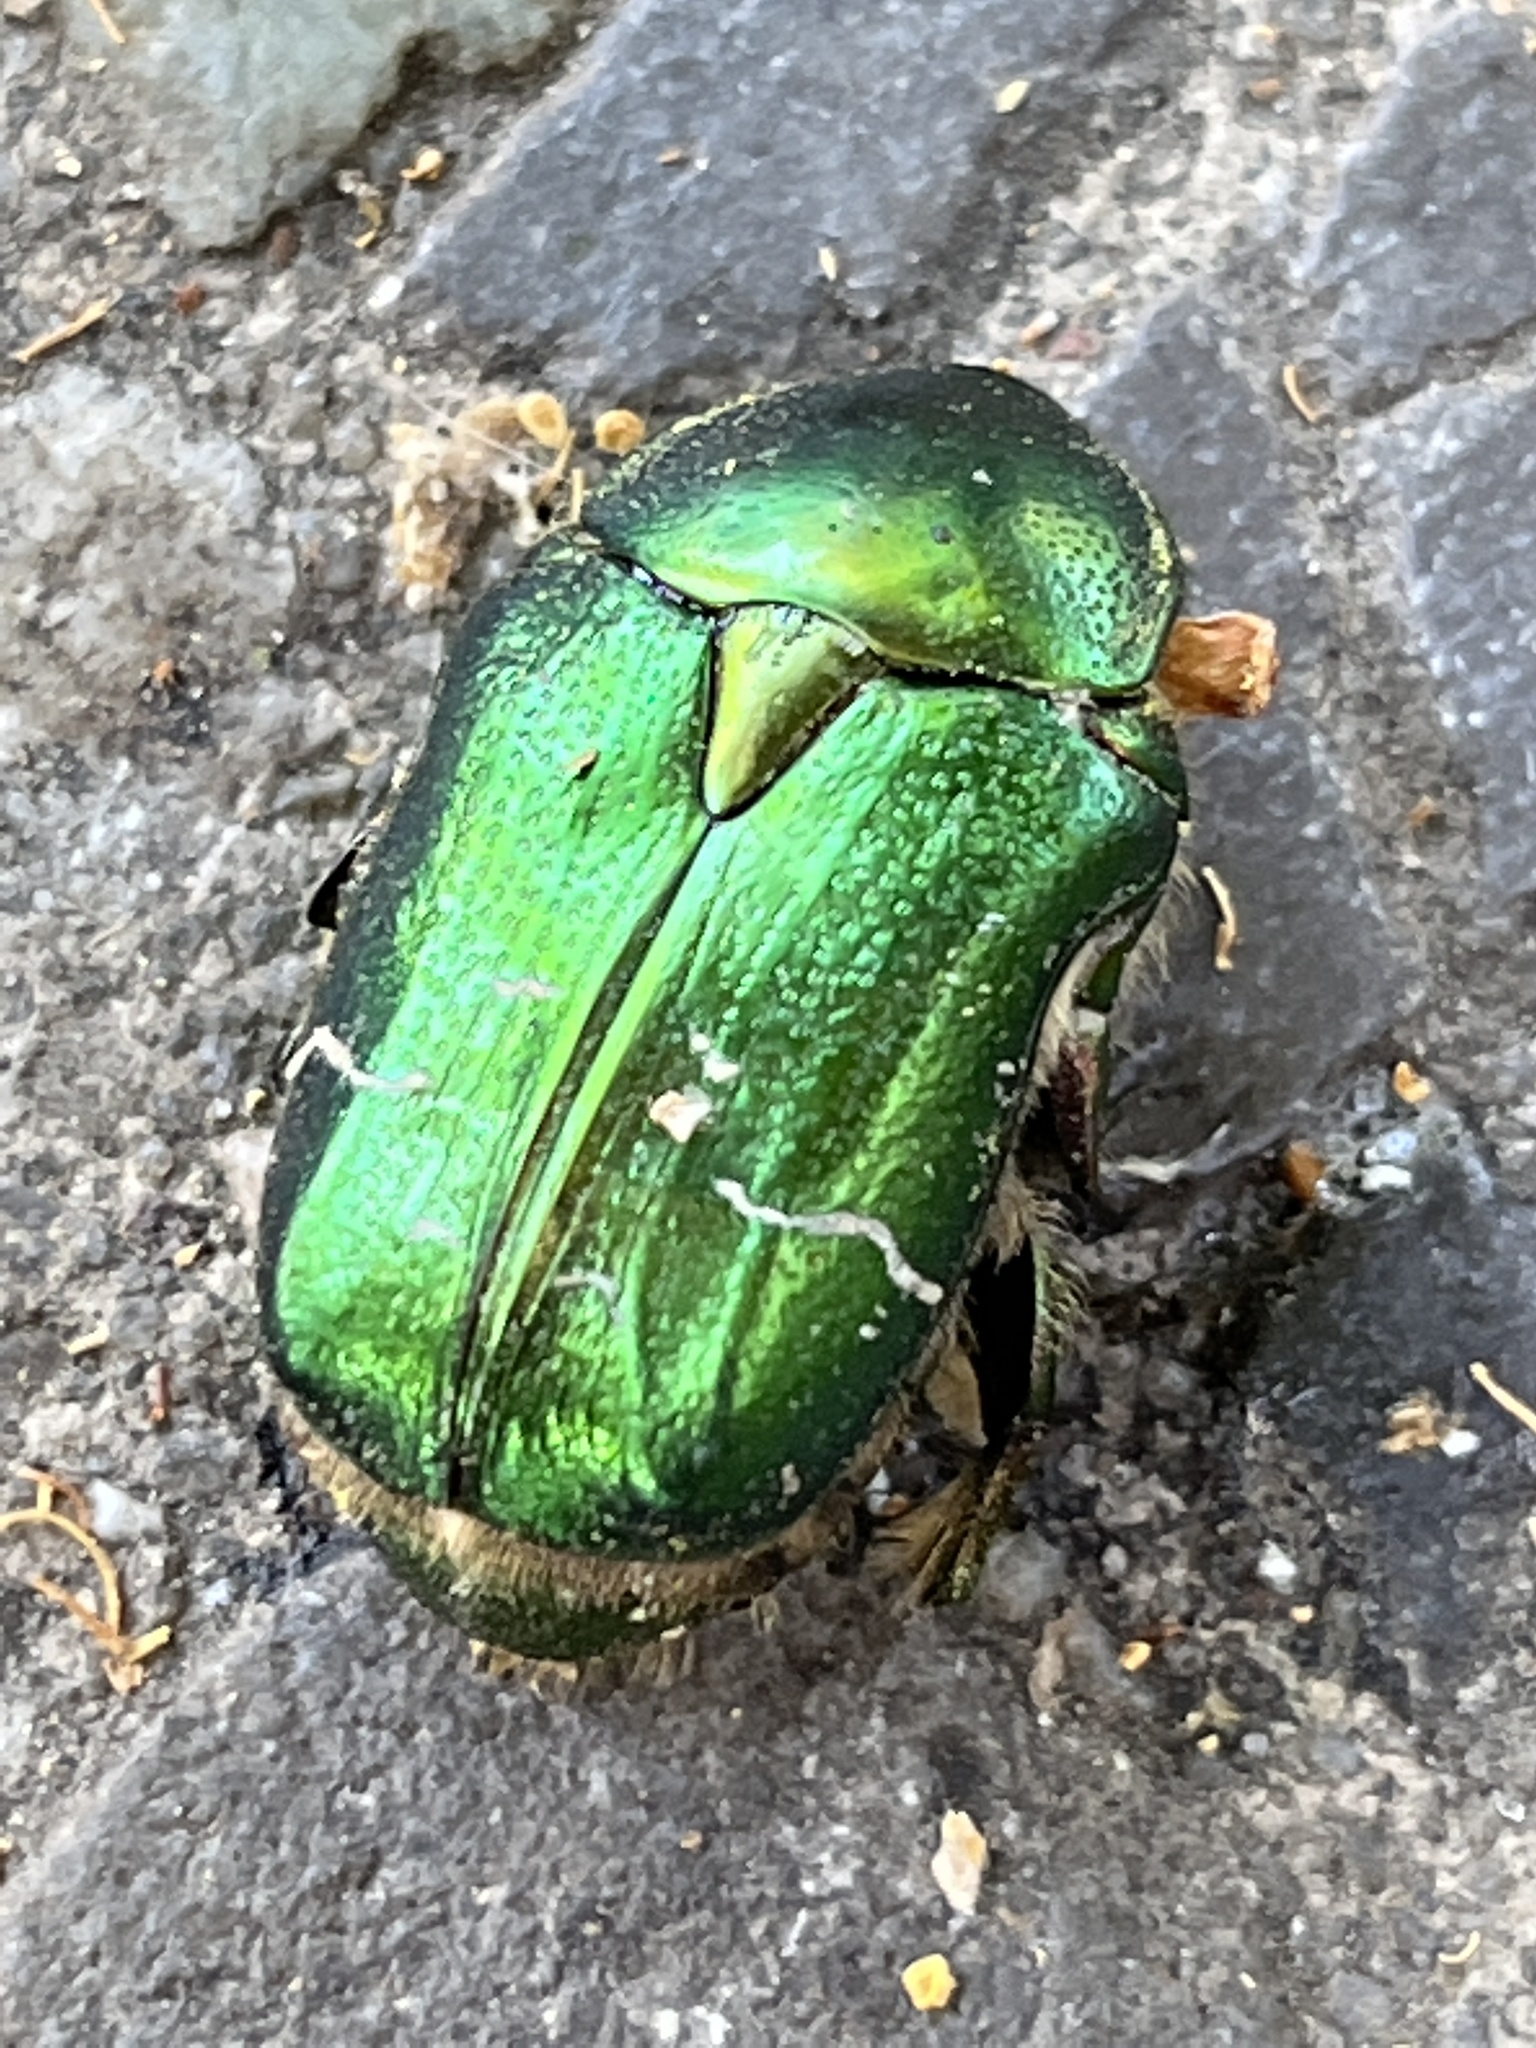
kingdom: Animalia
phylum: Arthropoda
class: Insecta
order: Coleoptera
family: Scarabaeidae
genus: Cetonia
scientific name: Cetonia aurata
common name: Rose chafer
